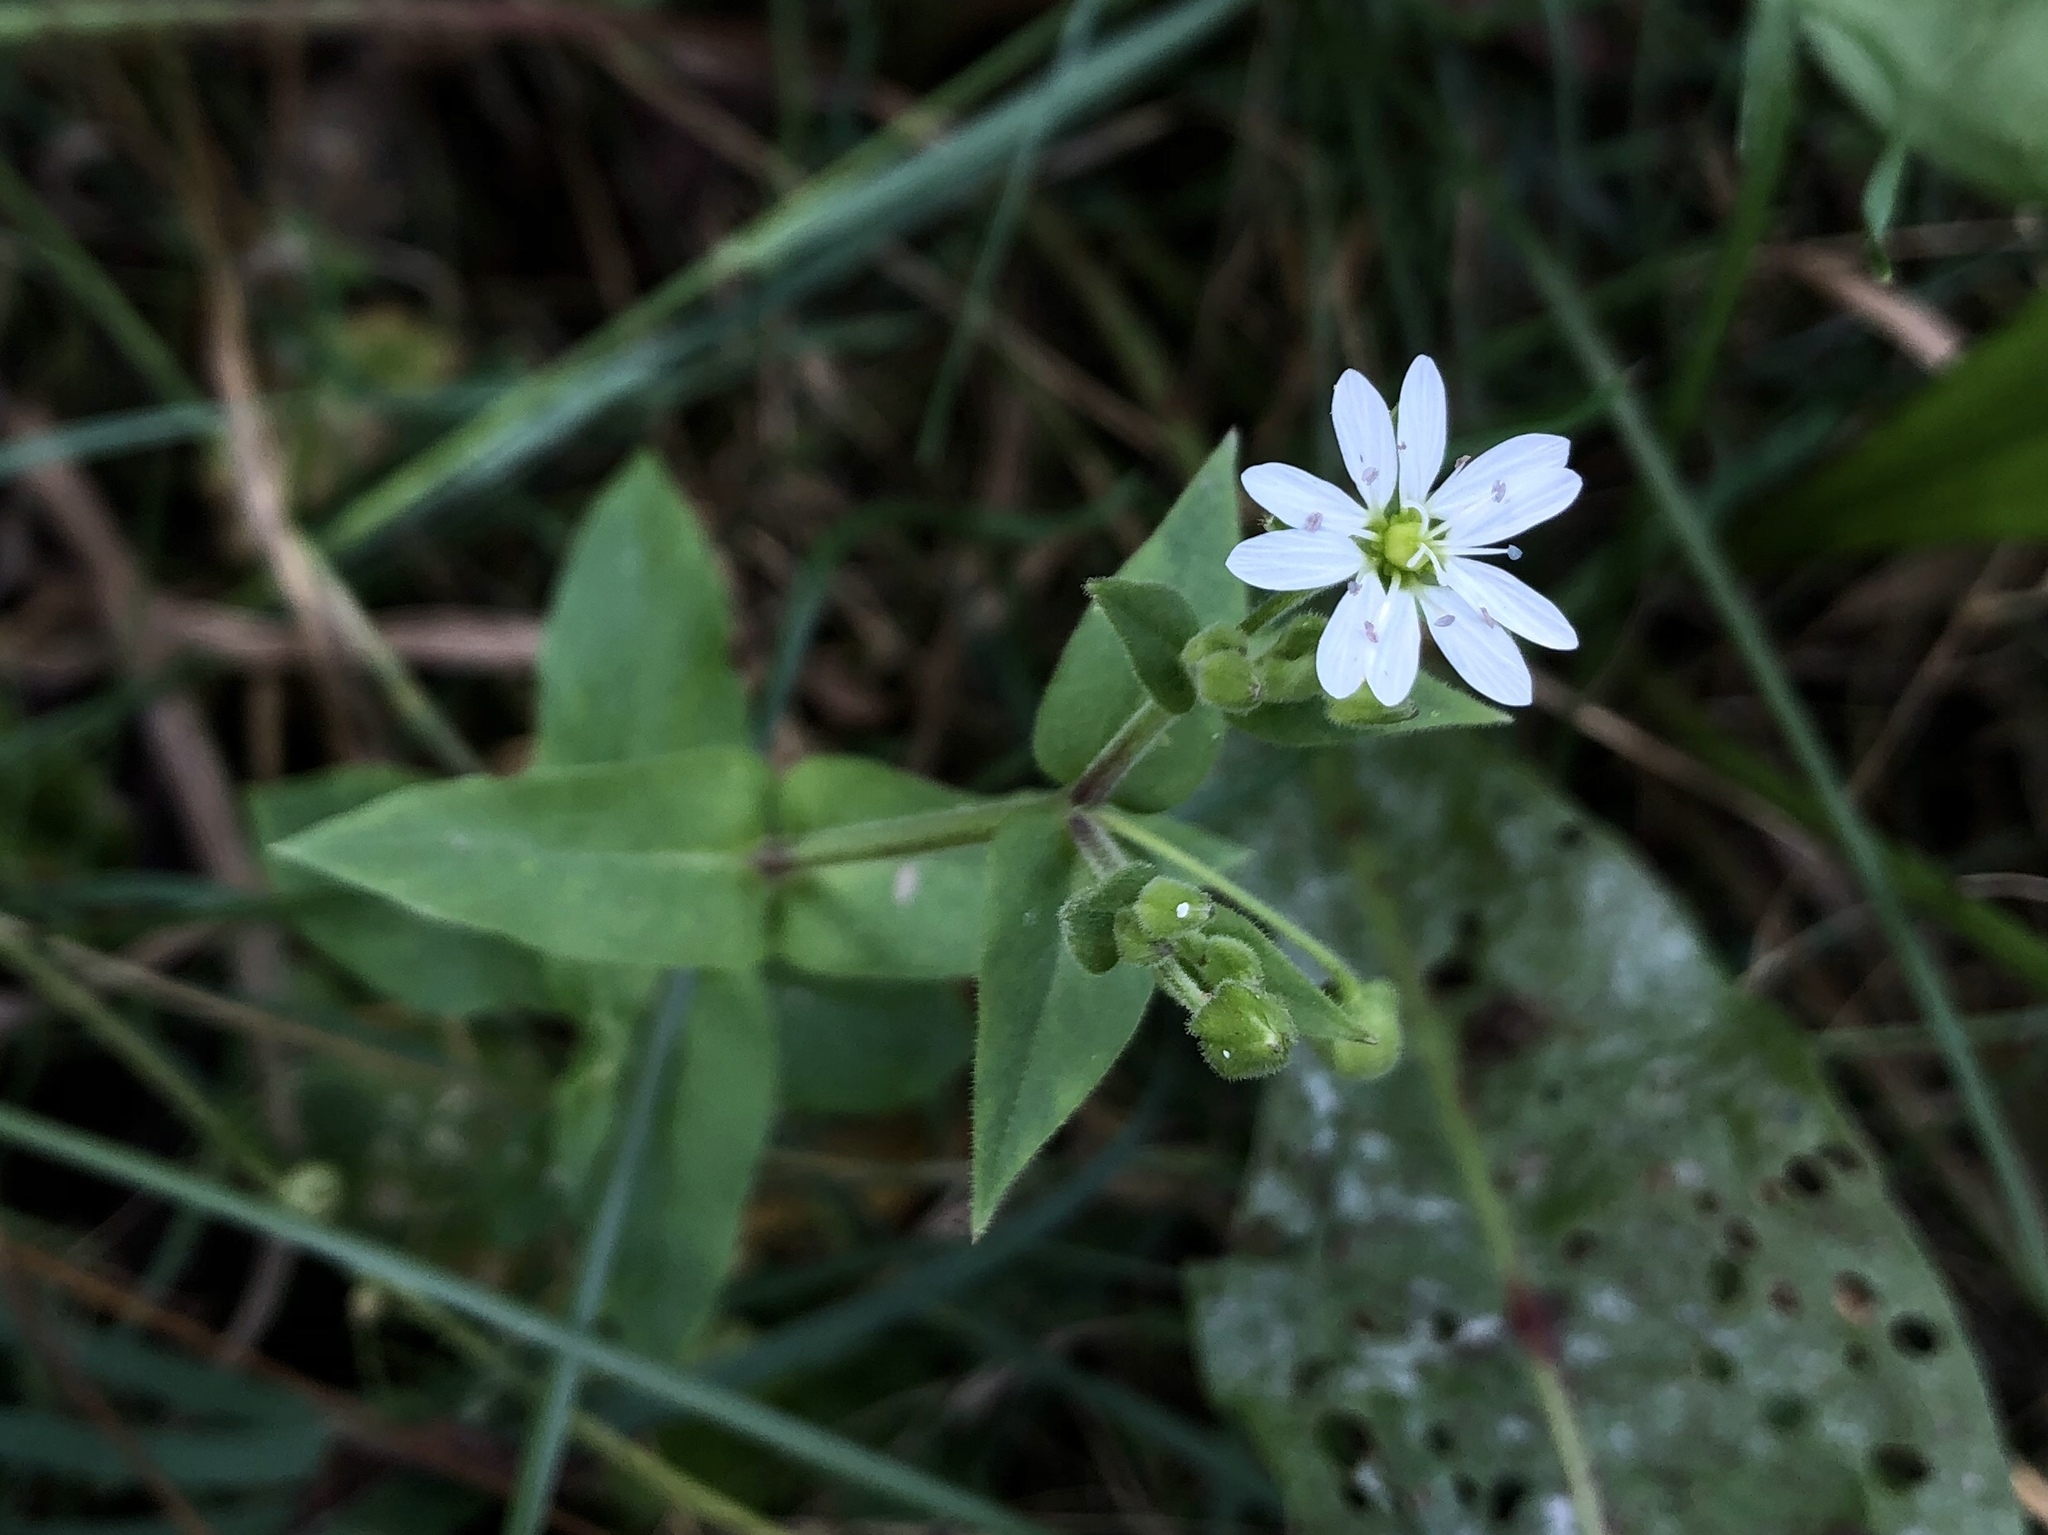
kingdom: Plantae
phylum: Tracheophyta
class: Magnoliopsida
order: Caryophyllales
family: Caryophyllaceae
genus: Stellaria
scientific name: Stellaria aquatica
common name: Water chickweed
